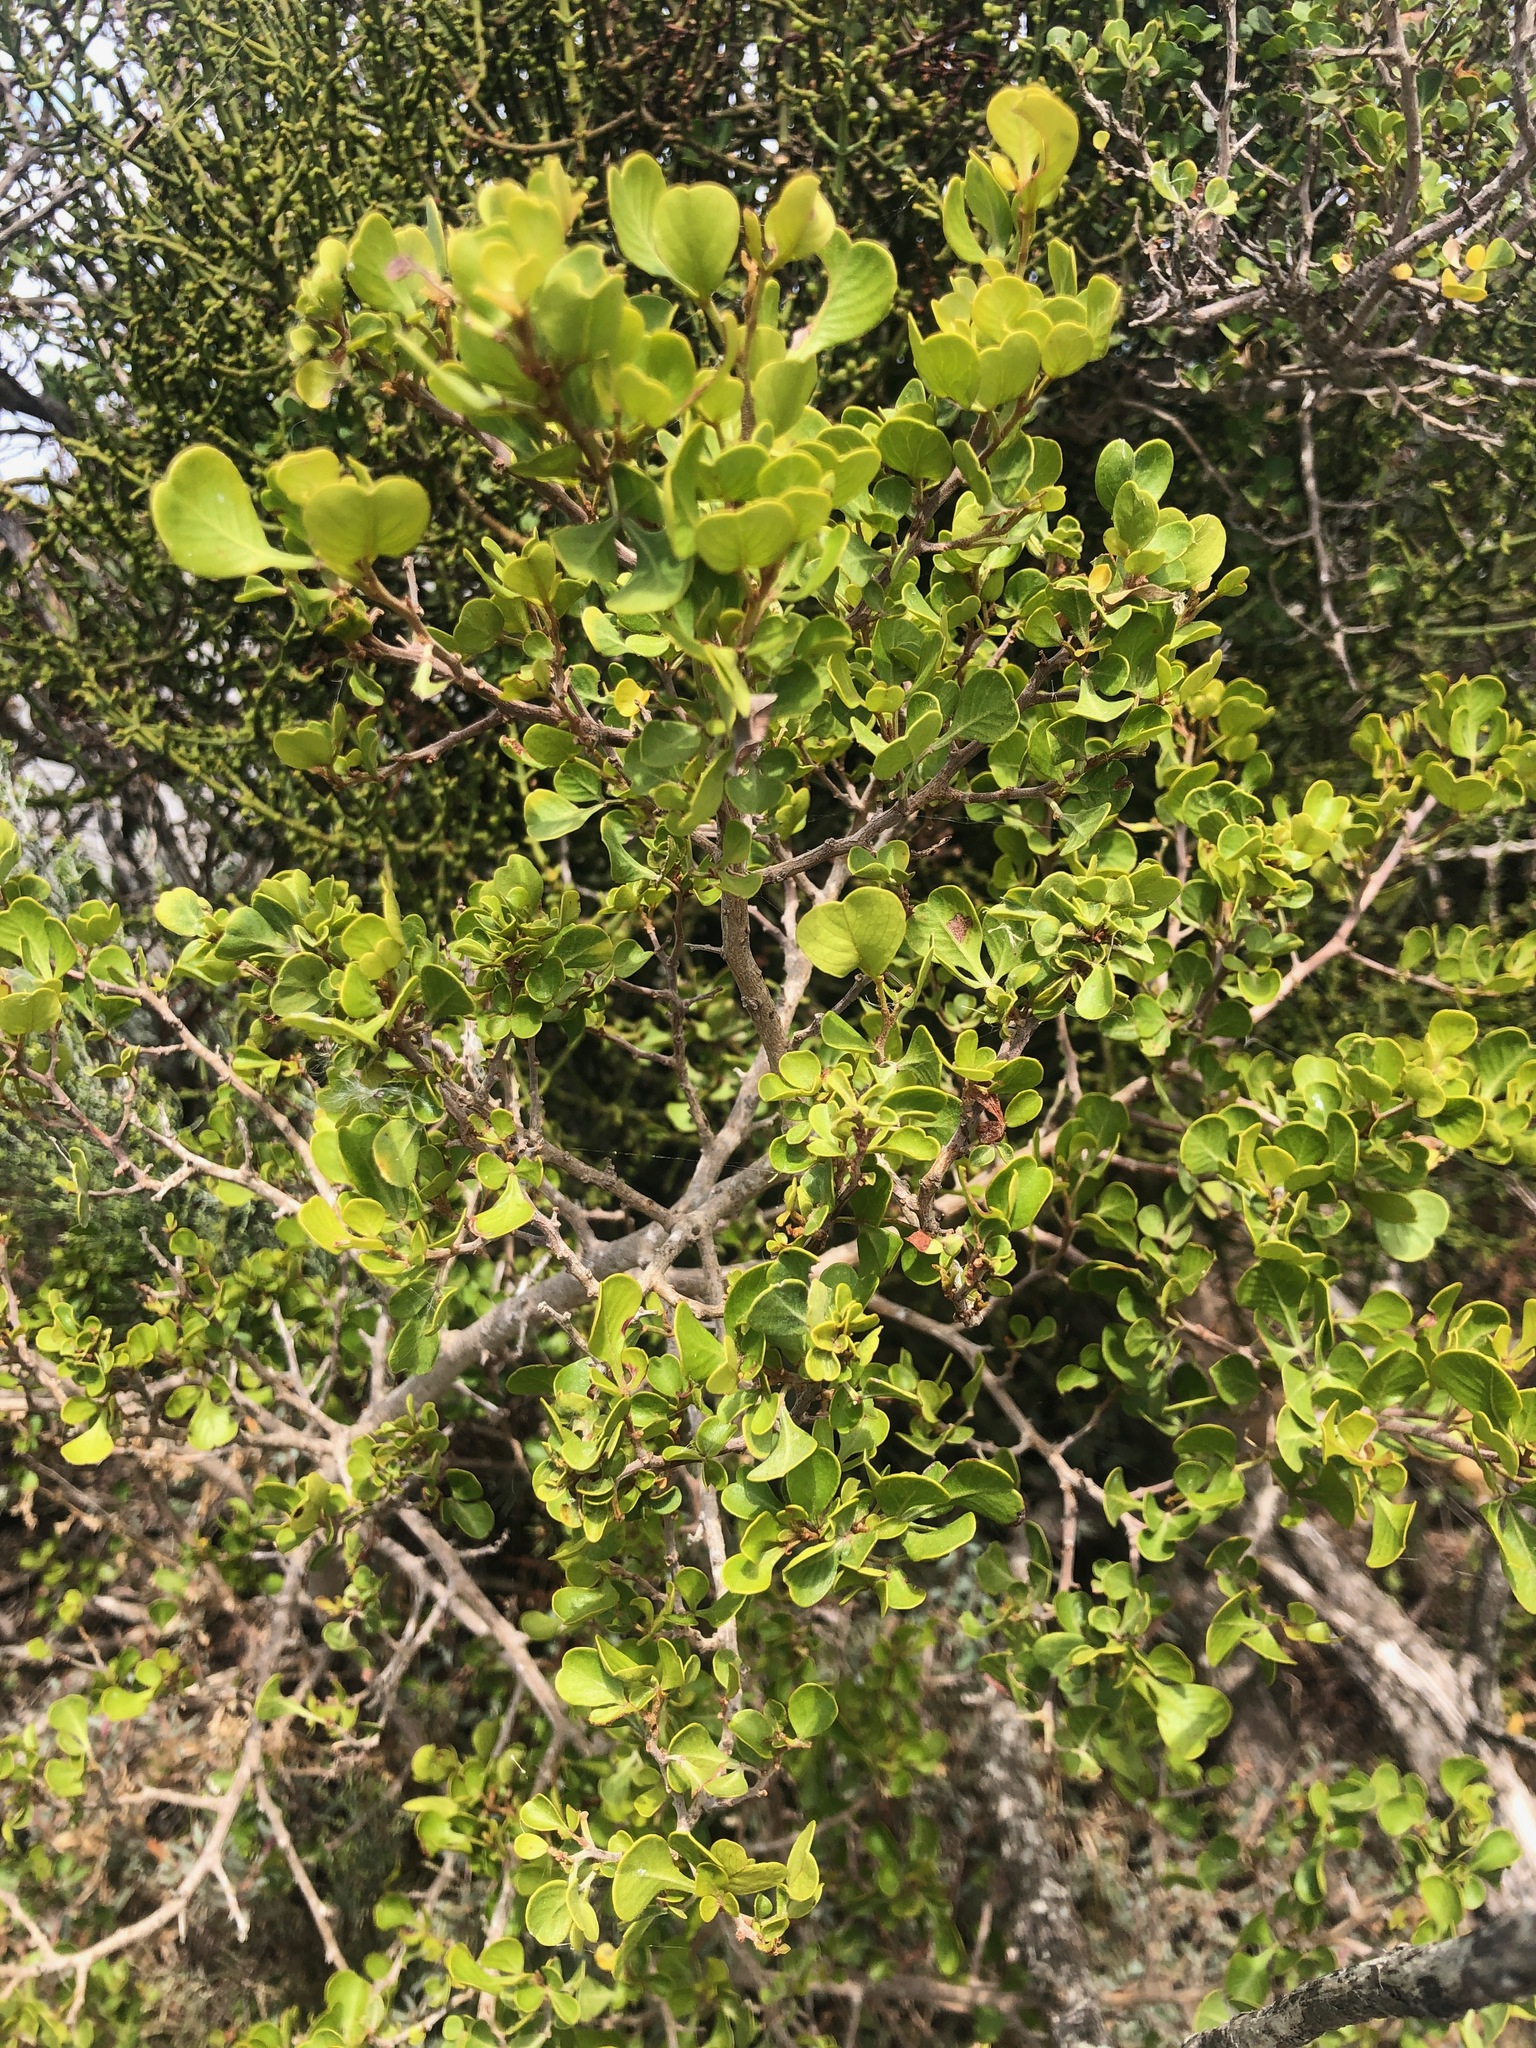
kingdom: Plantae
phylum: Tracheophyta
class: Magnoliopsida
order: Sapindales
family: Anacardiaceae
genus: Searsia
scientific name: Searsia glauca
